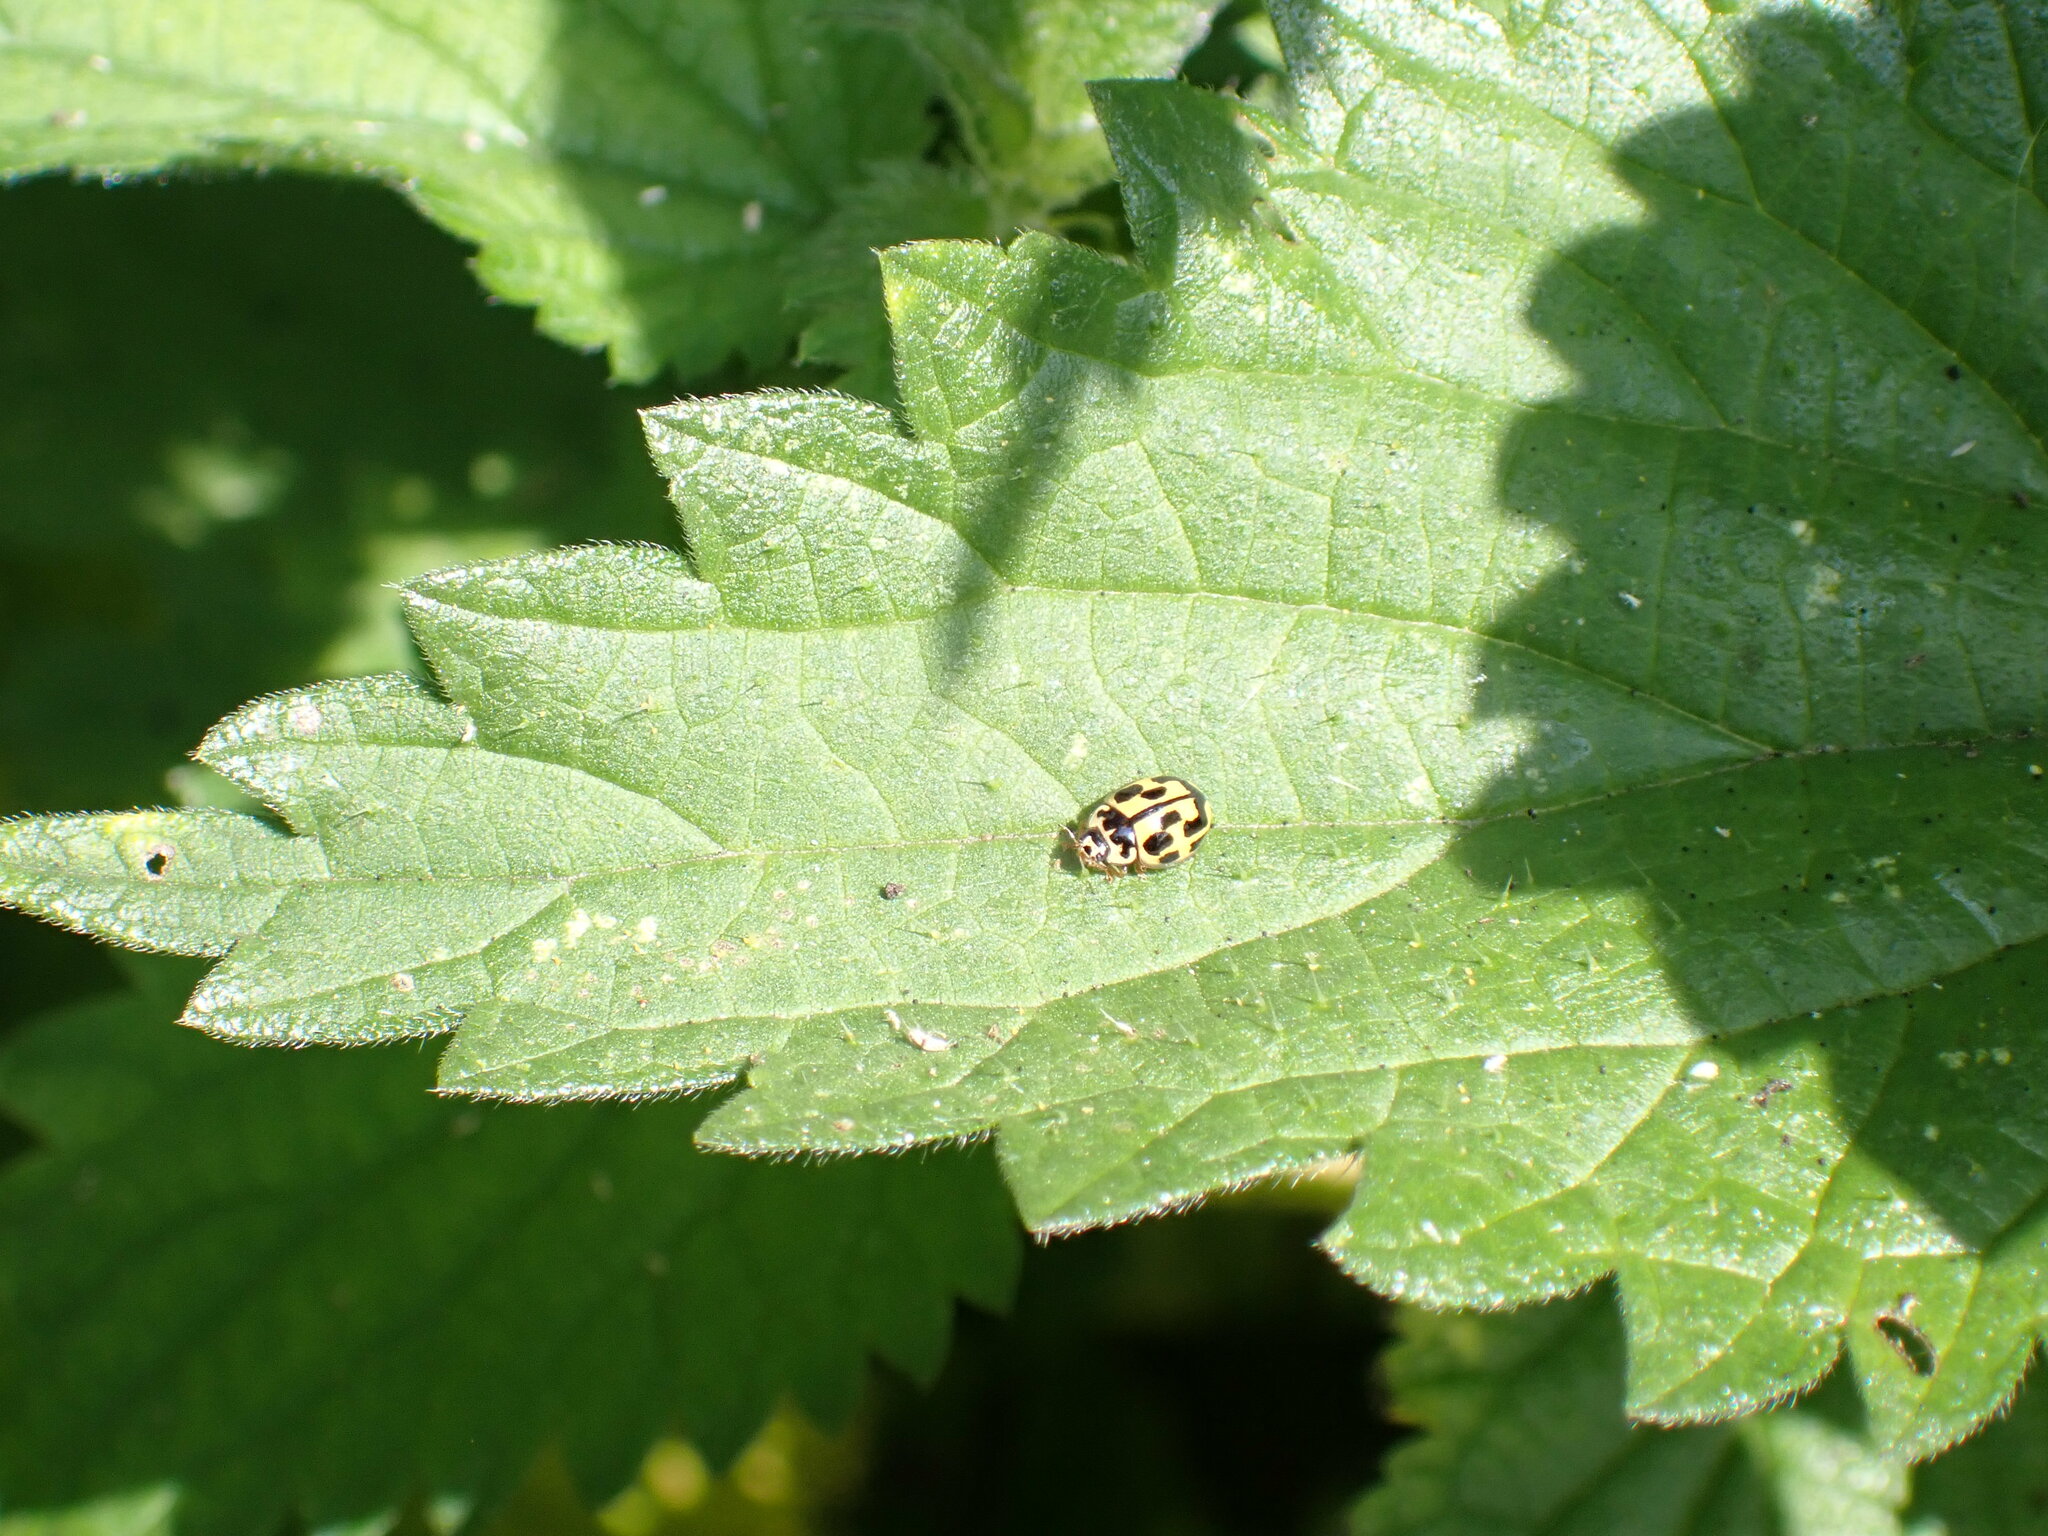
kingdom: Animalia
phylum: Arthropoda
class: Insecta
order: Coleoptera
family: Coccinellidae
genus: Propylaea
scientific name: Propylaea quatuordecimpunctata
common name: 14-spotted ladybird beetle
